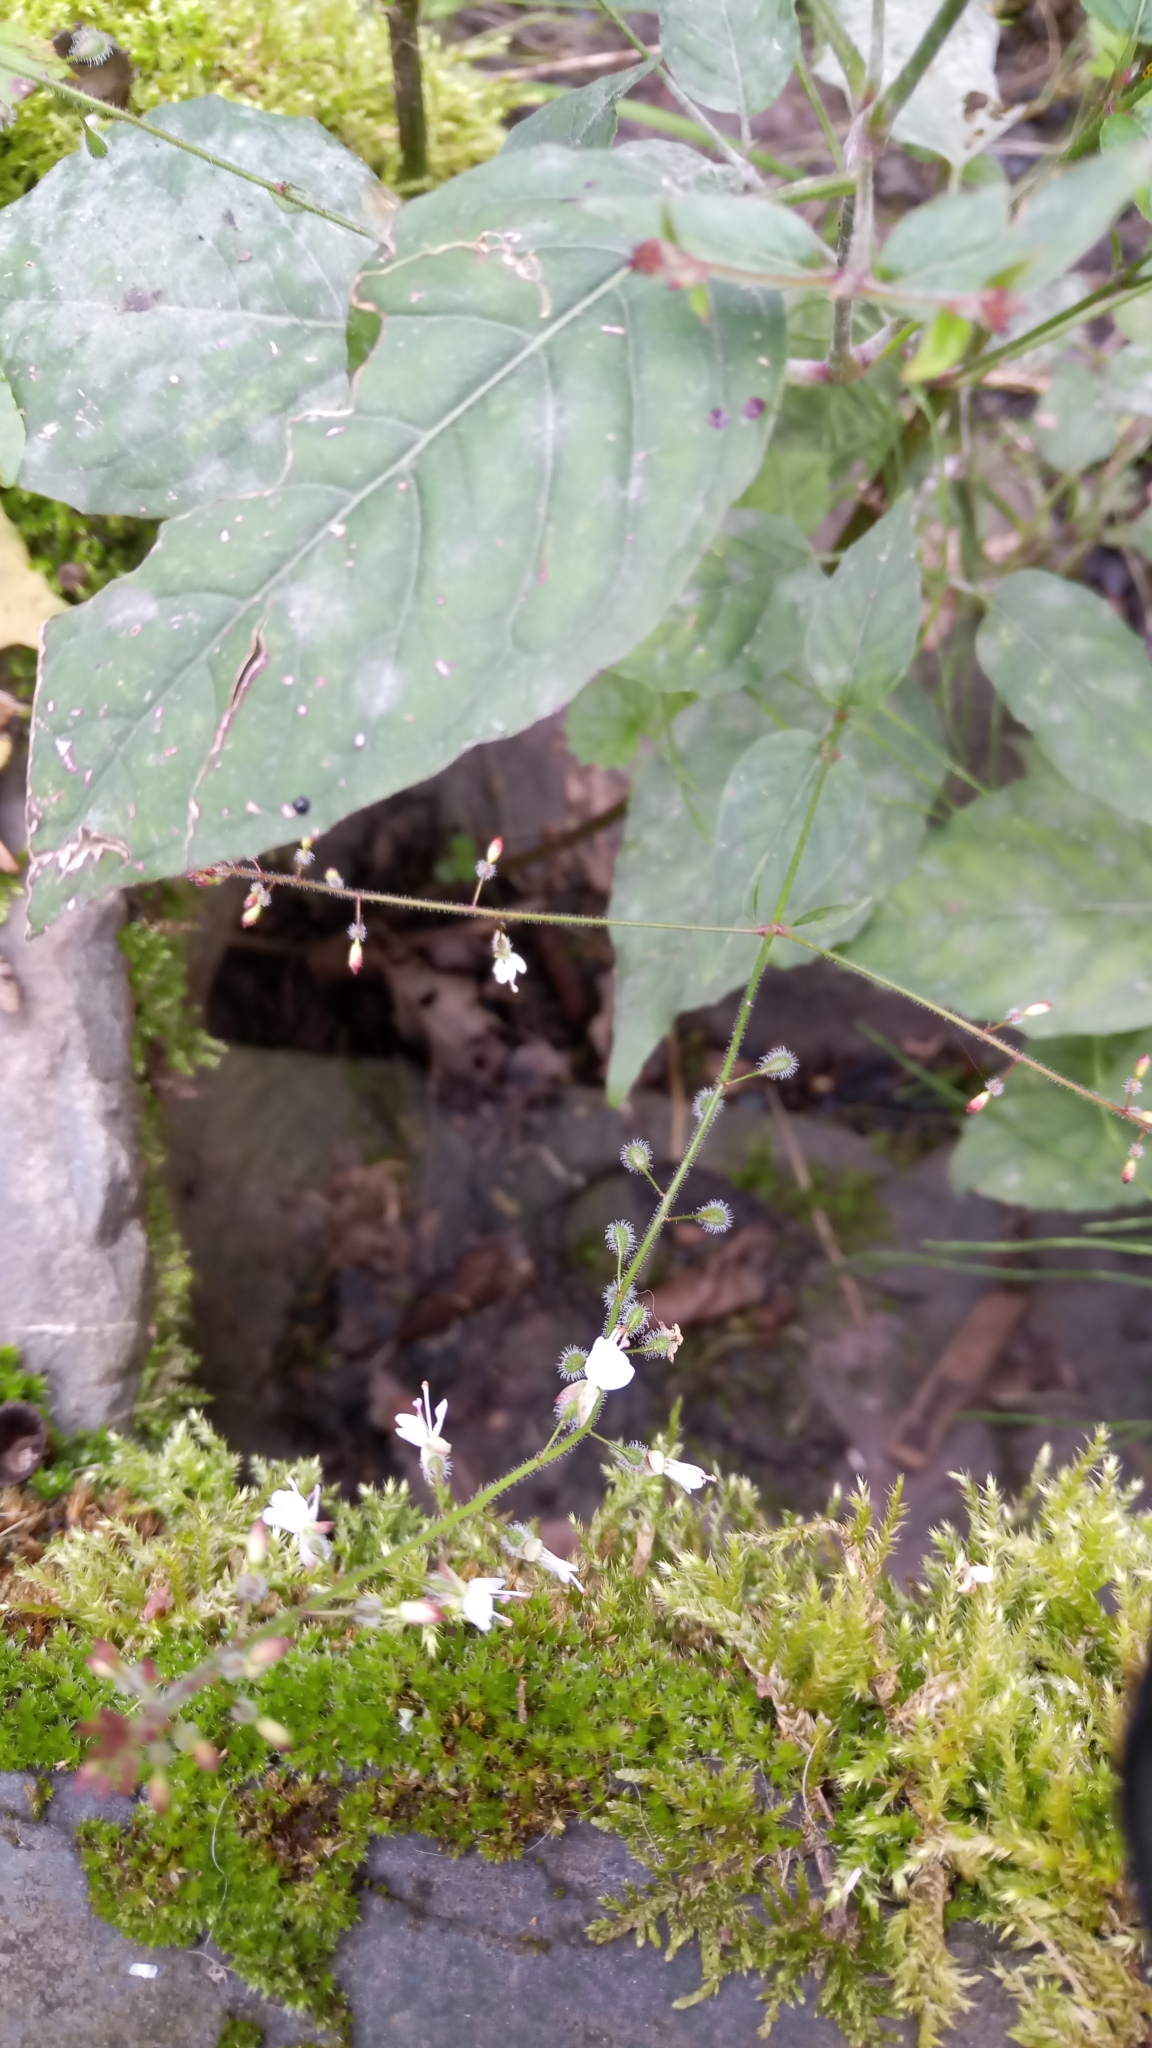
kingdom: Plantae
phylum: Tracheophyta
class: Magnoliopsida
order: Myrtales
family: Onagraceae
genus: Circaea
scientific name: Circaea lutetiana
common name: Enchanter's-nightshade
